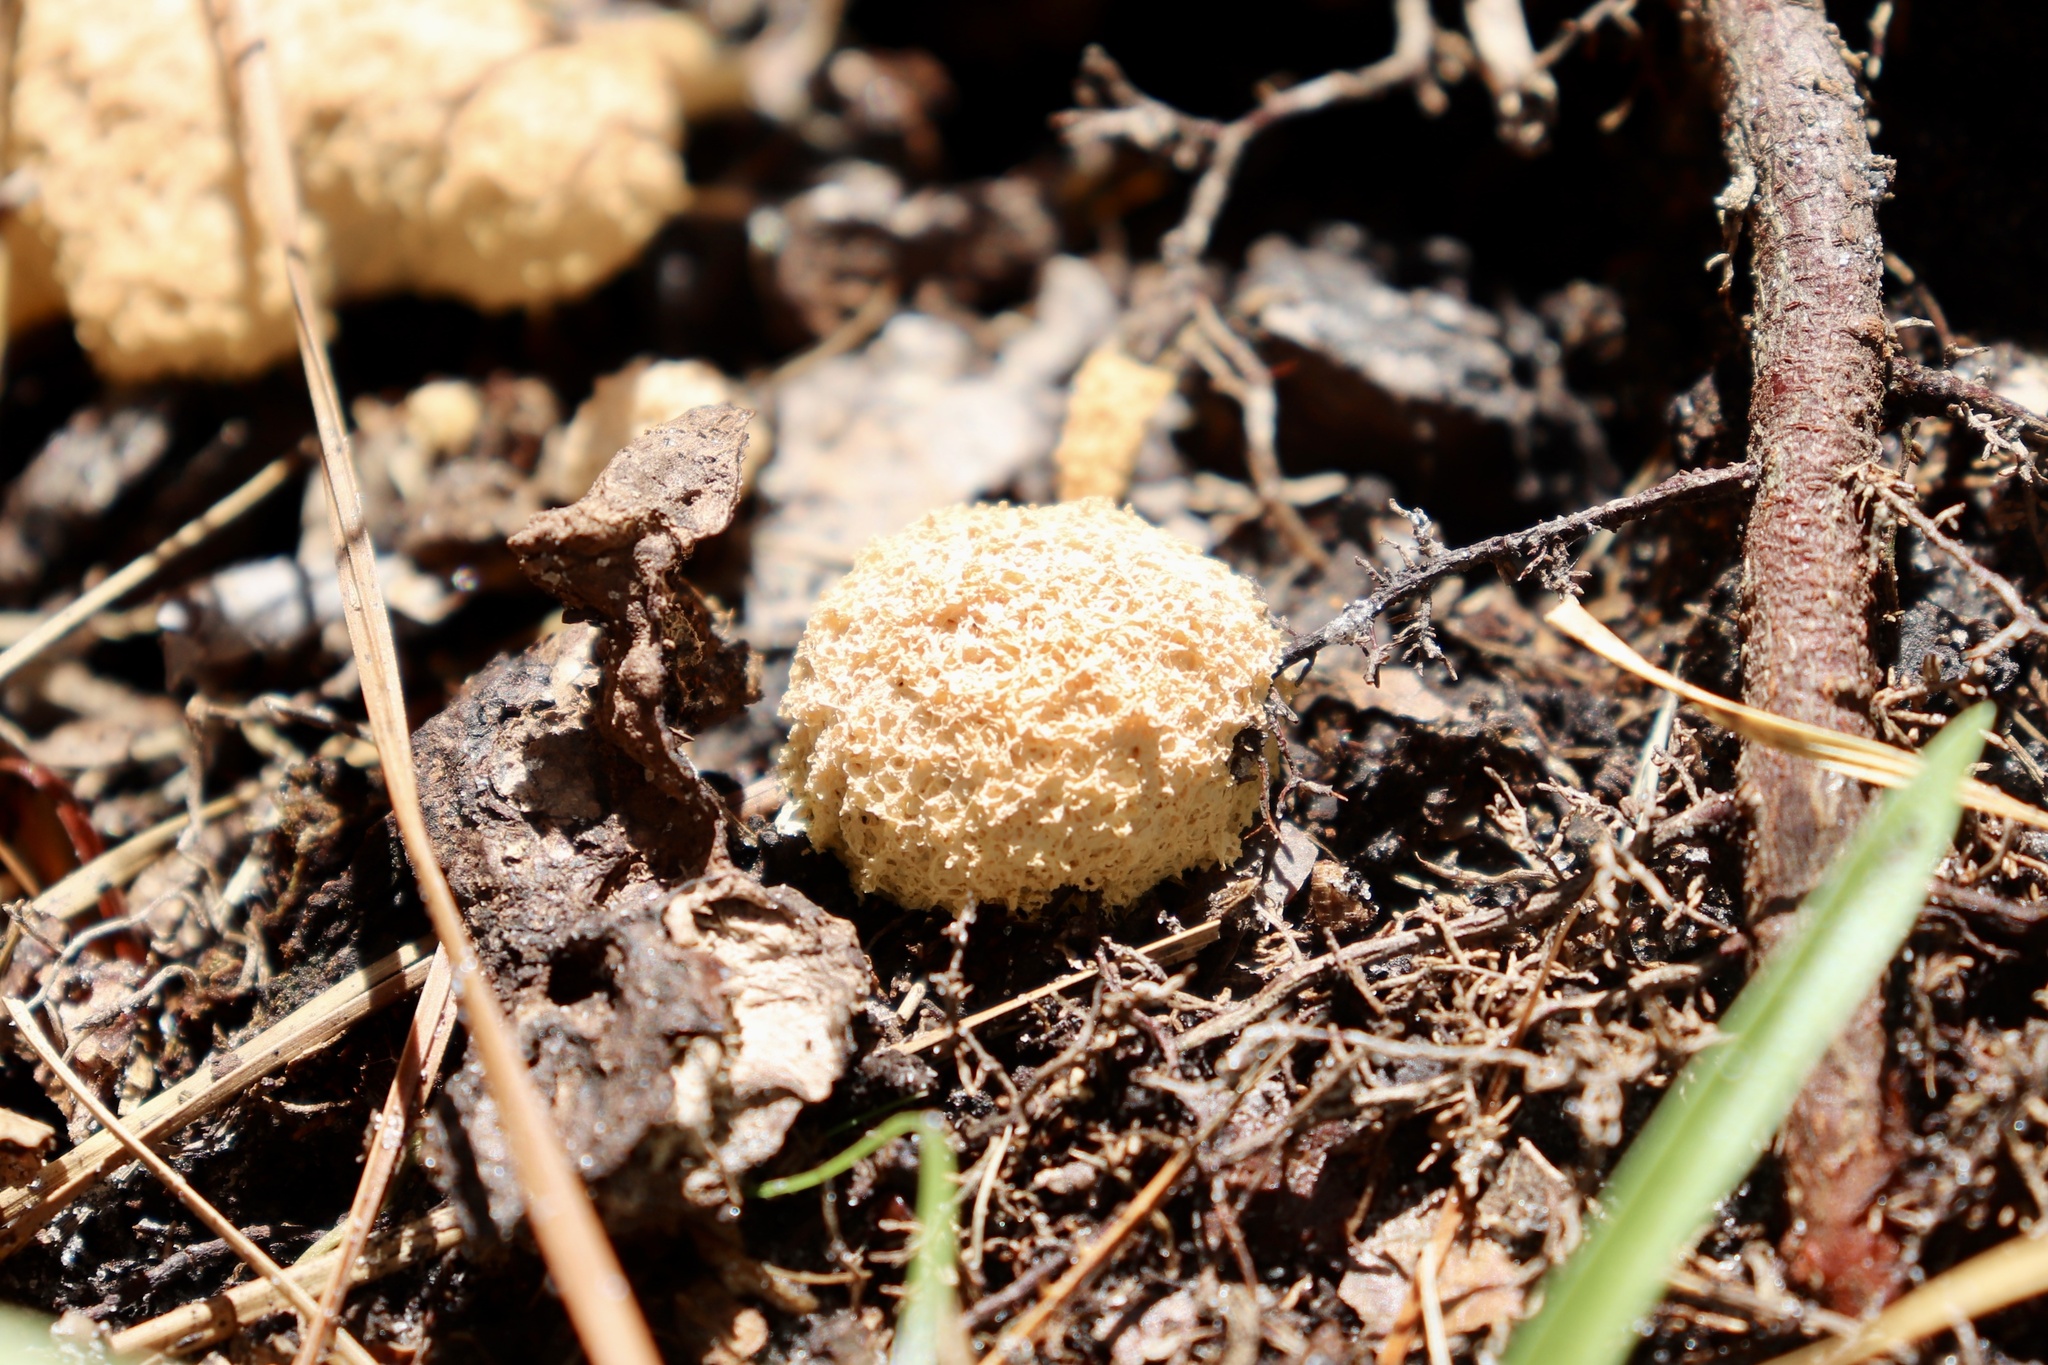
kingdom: Protozoa
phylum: Mycetozoa
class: Myxomycetes
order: Physarales
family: Physaraceae
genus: Fuligo
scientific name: Fuligo septica
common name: Dog vomit slime mold
